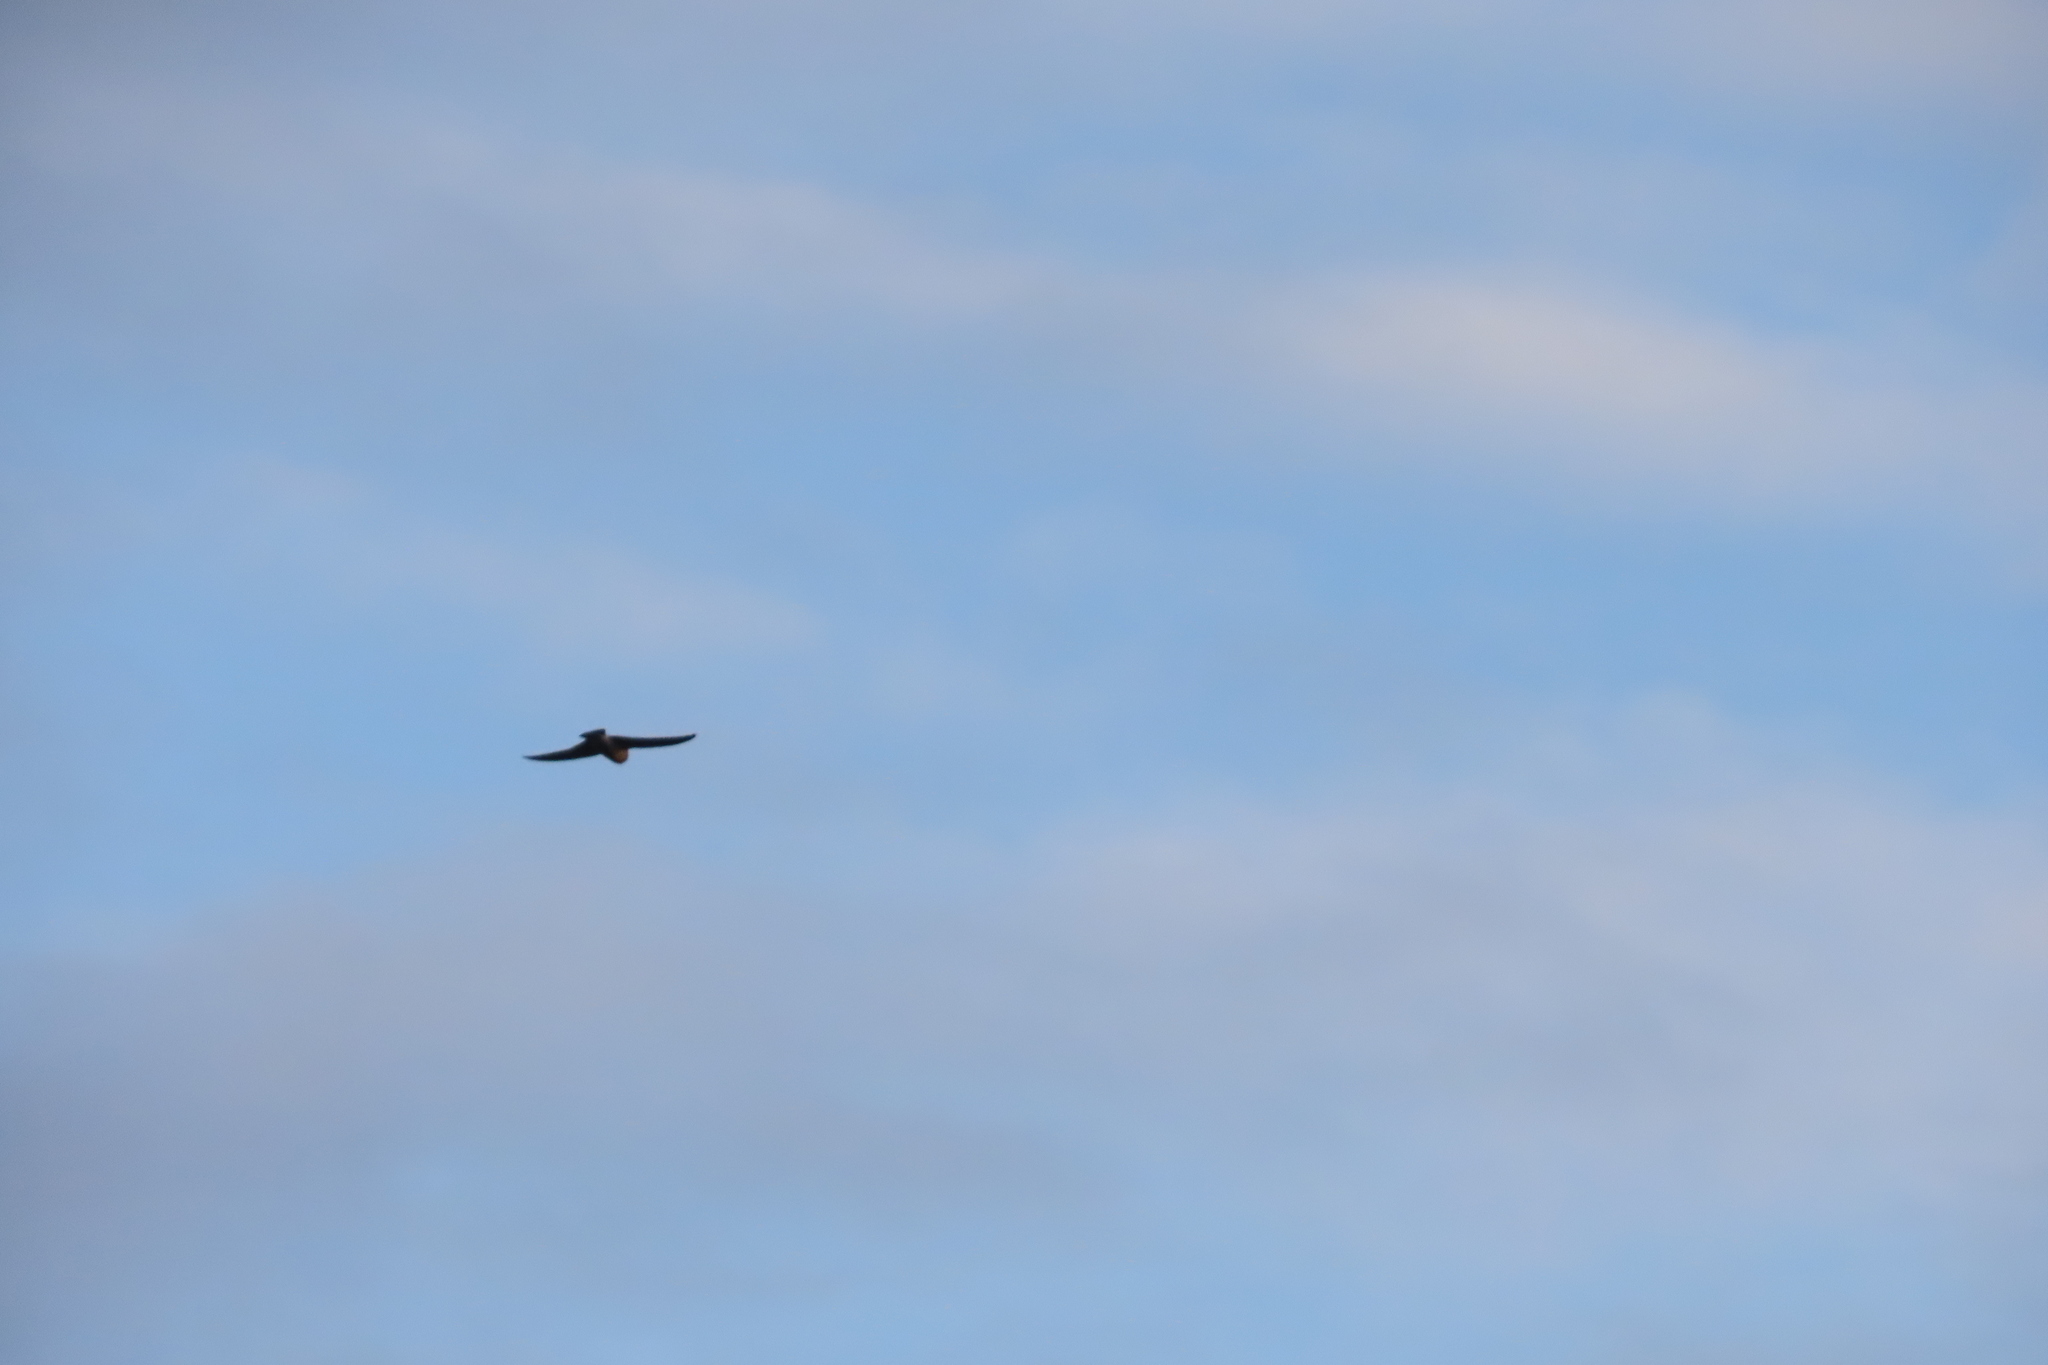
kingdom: Animalia
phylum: Chordata
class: Aves
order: Passeriformes
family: Artamidae
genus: Artamus
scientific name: Artamus fuscus
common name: Ashy woodswallow
